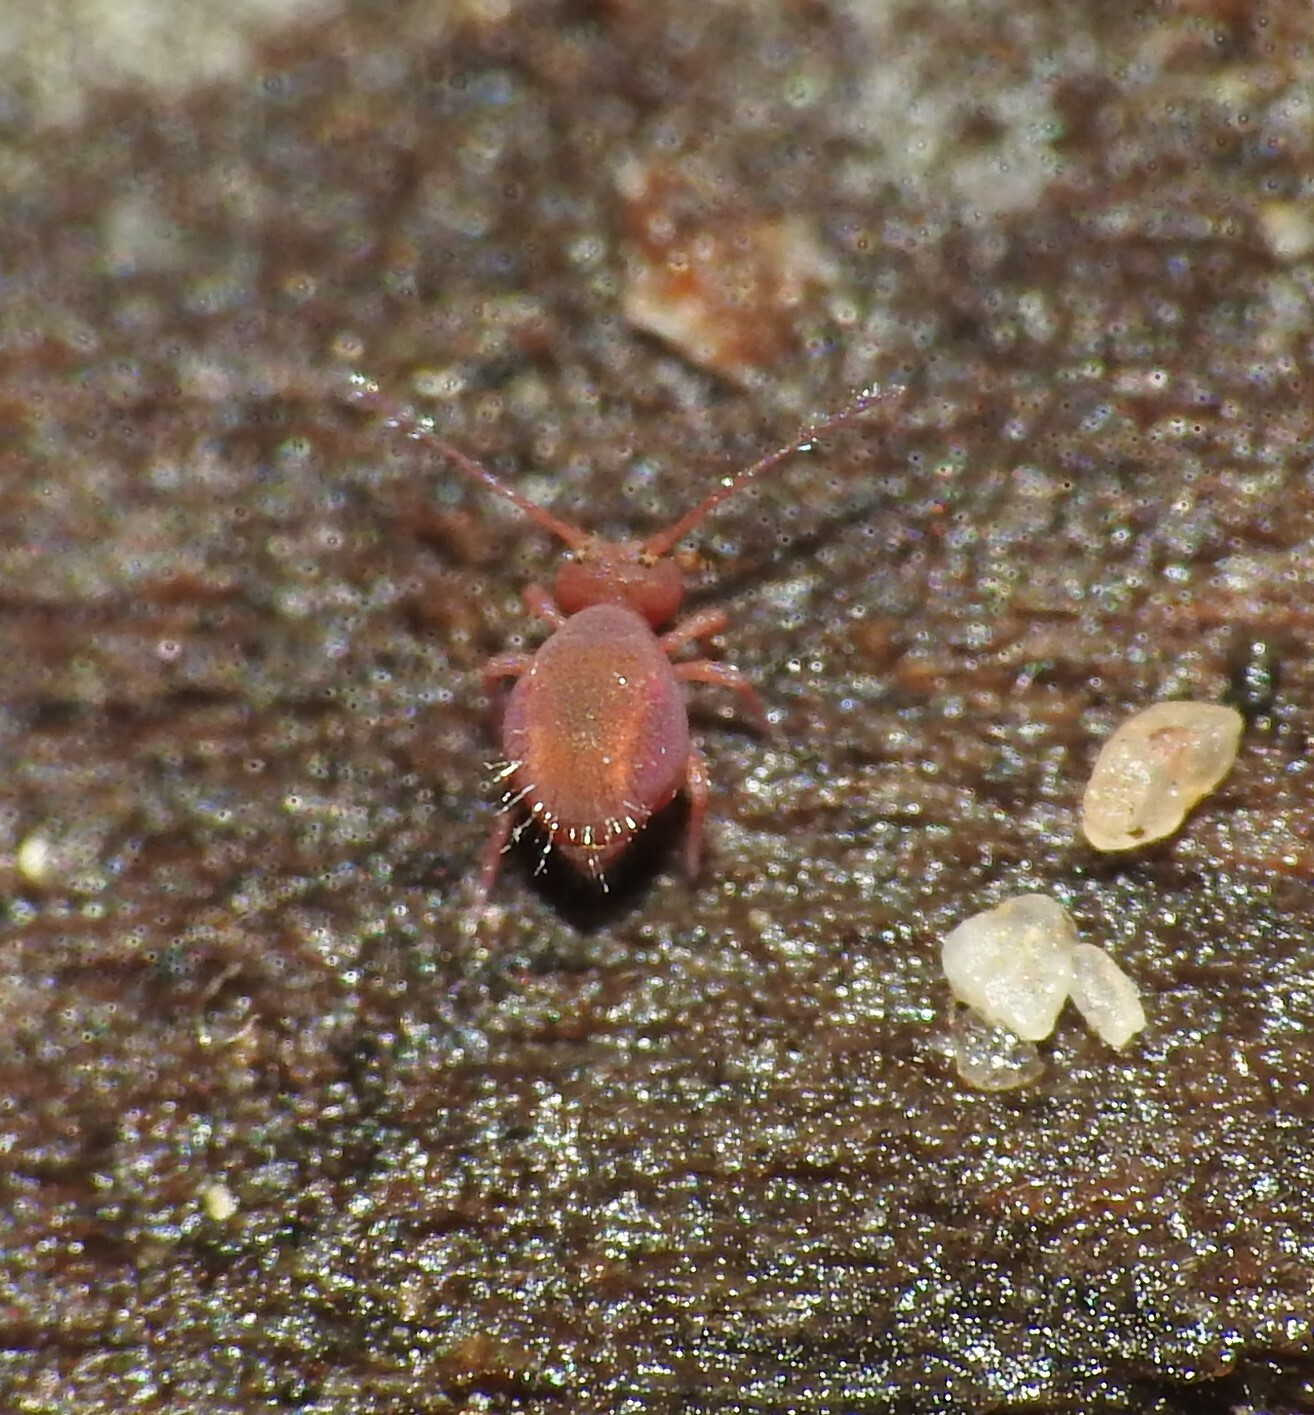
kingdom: Animalia
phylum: Arthropoda
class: Collembola
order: Symphypleona
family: Dicyrtomidae
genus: Dicyrtoma
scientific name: Dicyrtoma fusca
